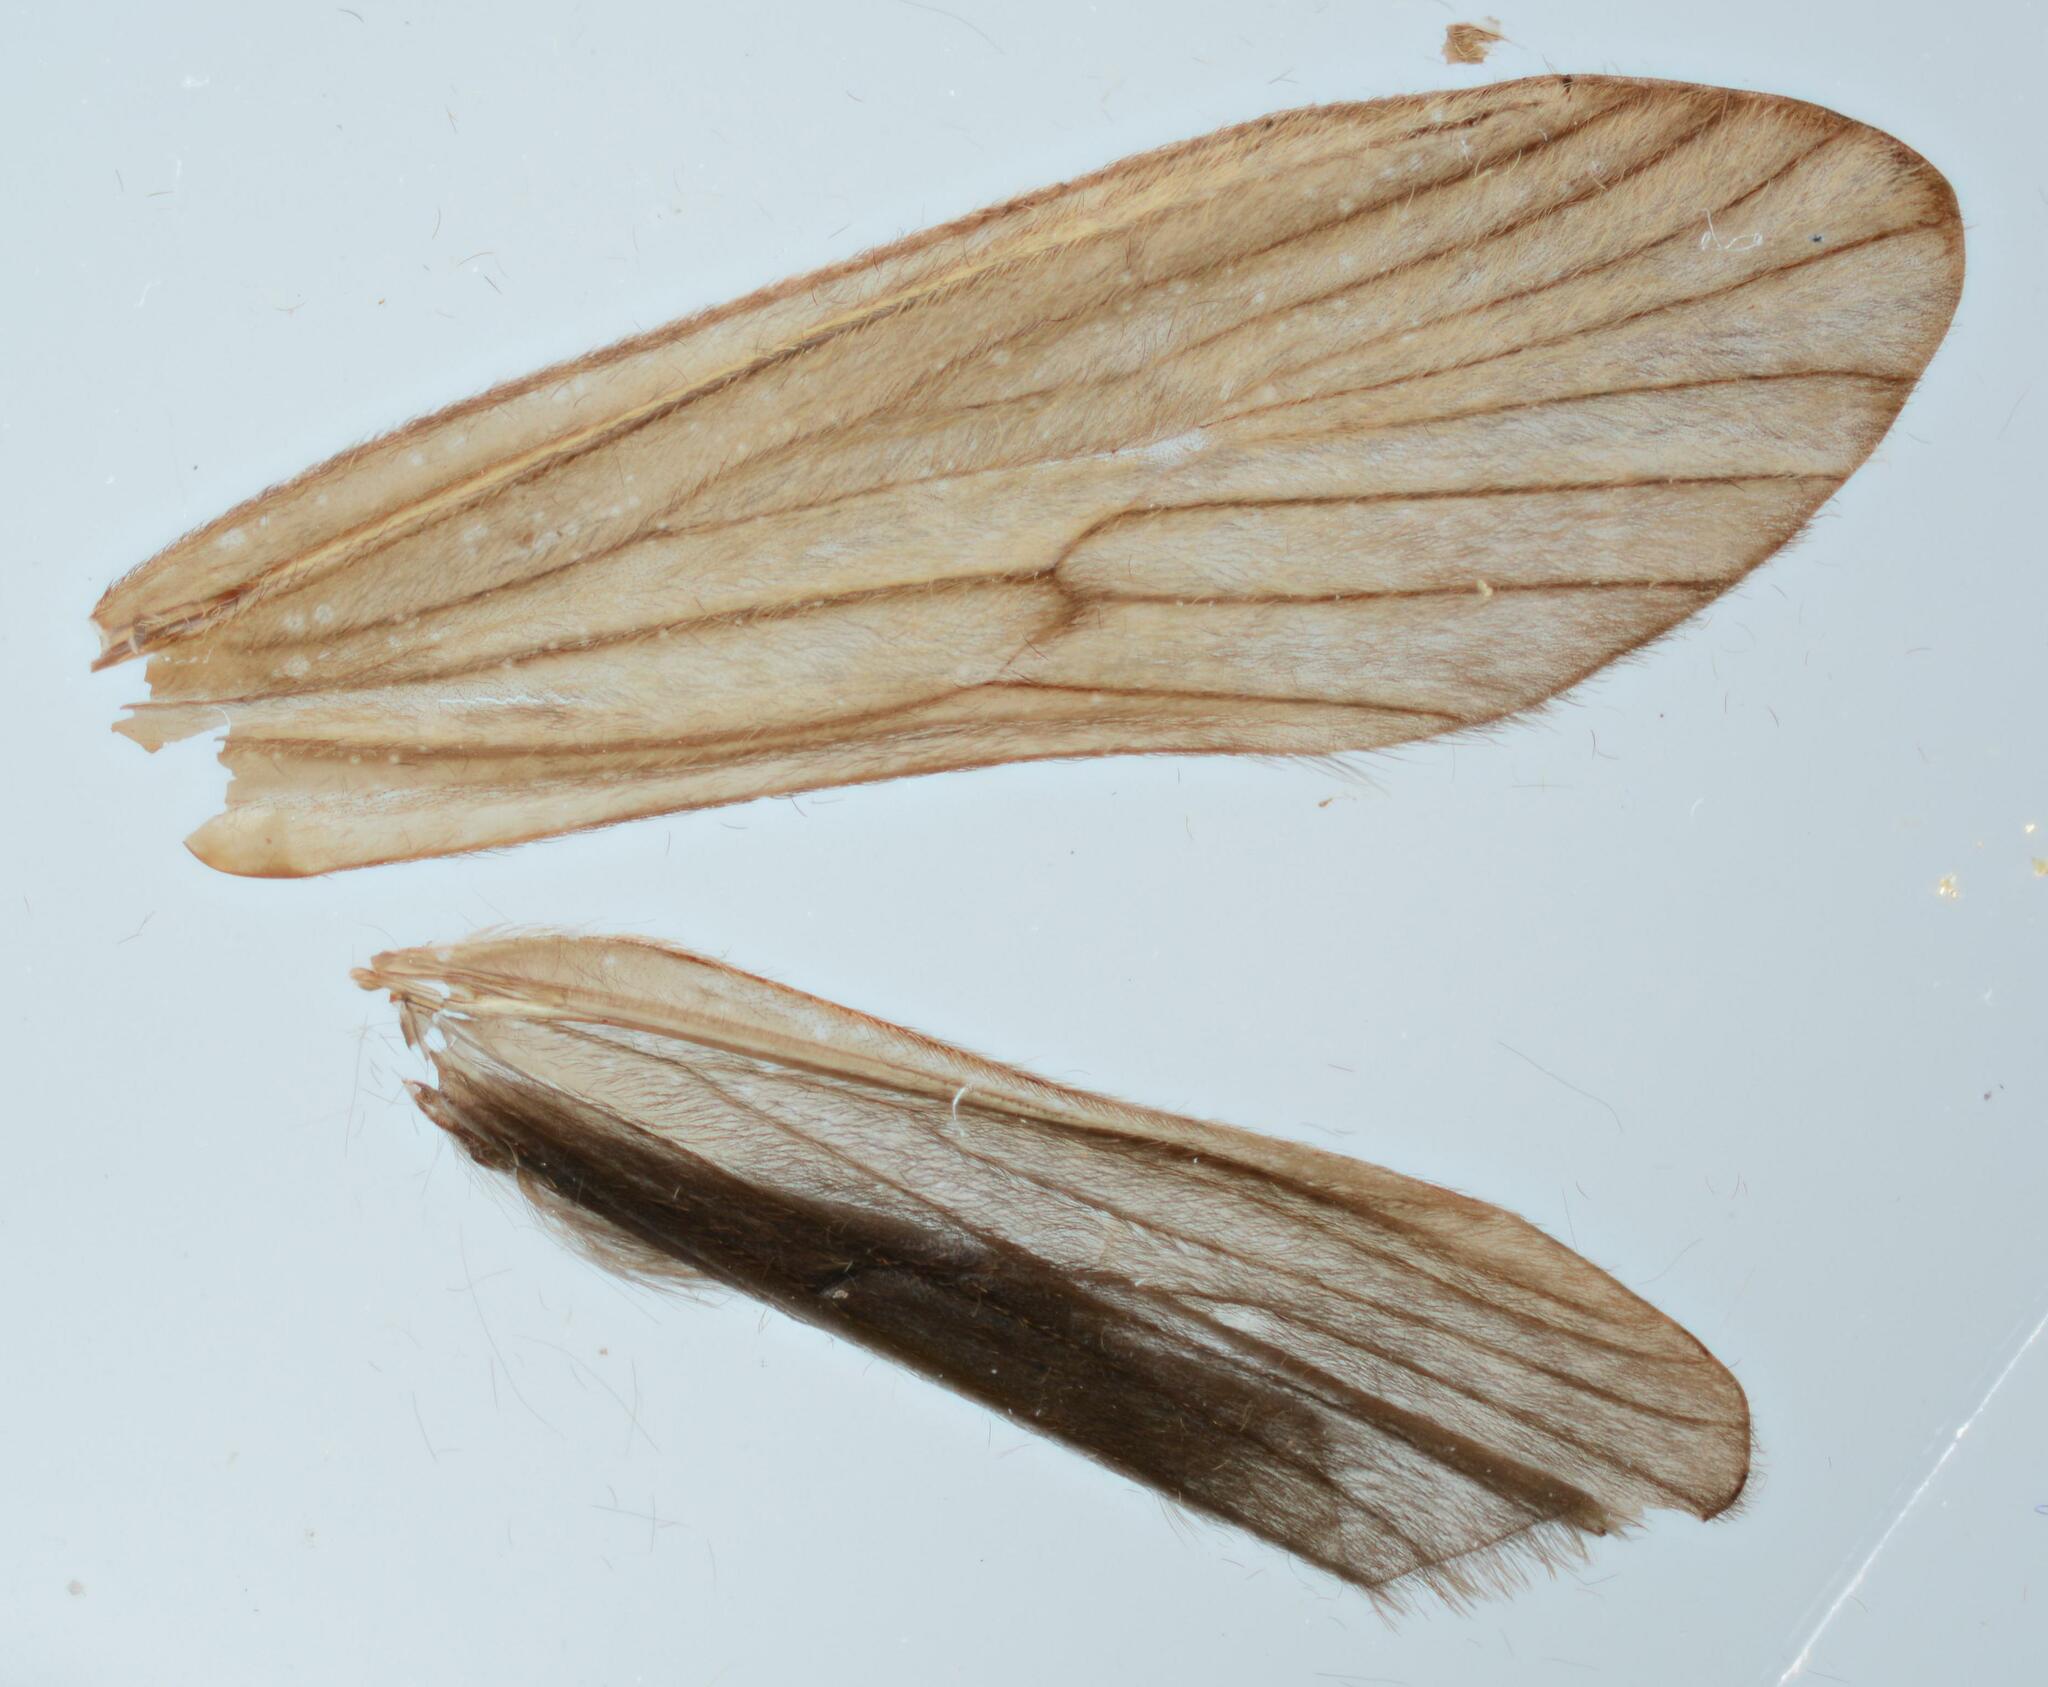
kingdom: Animalia
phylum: Arthropoda
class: Insecta
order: Trichoptera
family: Odontoceridae
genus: Odontocerum
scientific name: Odontocerum albicorne
